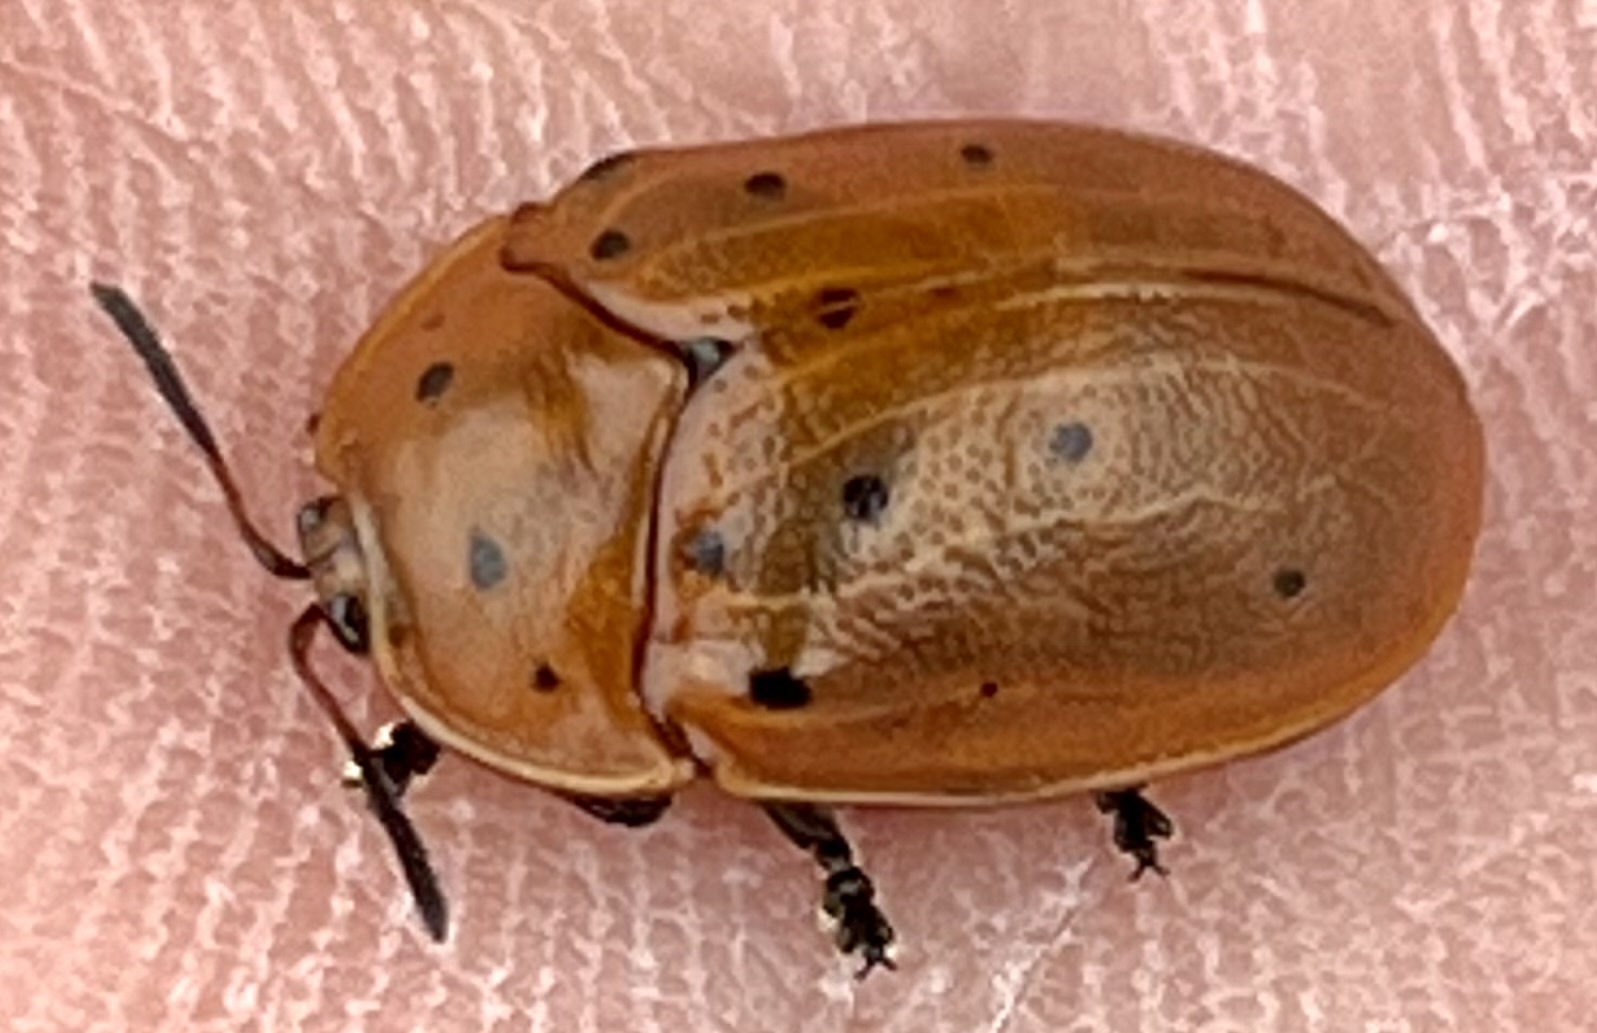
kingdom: Animalia
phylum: Arthropoda
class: Insecta
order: Coleoptera
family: Chrysomelidae
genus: Chelymorpha
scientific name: Chelymorpha cassidea
